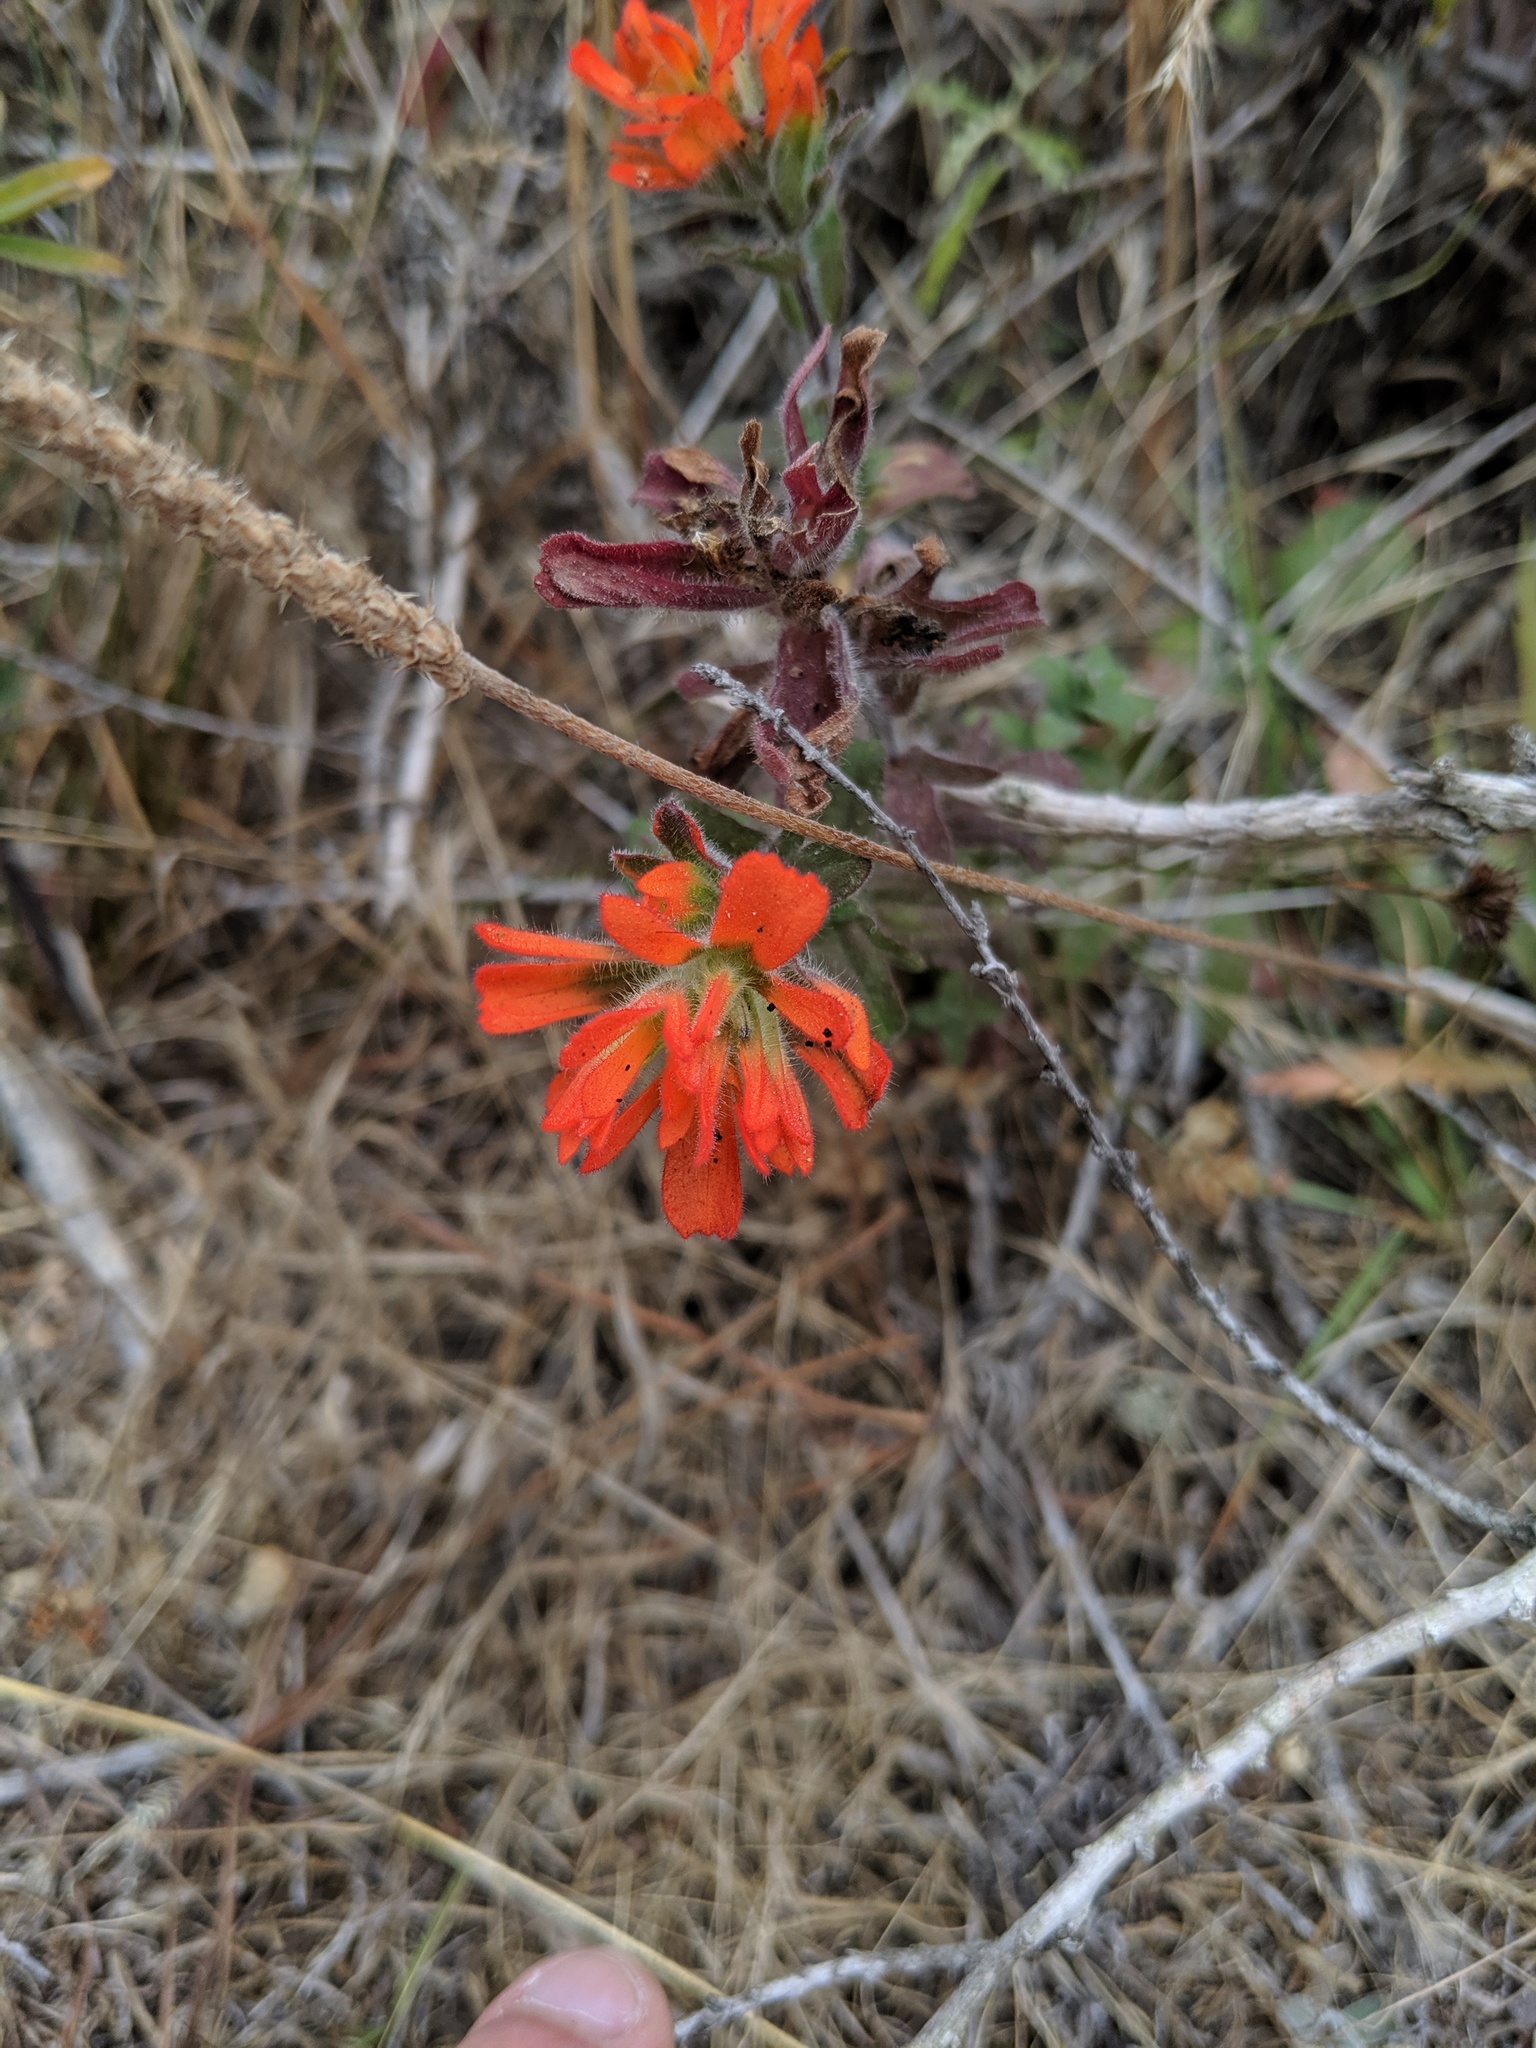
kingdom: Plantae
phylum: Tracheophyta
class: Magnoliopsida
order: Lamiales
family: Orobanchaceae
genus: Castilleja
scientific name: Castilleja latifolia
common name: Monterey indian paintbrush
